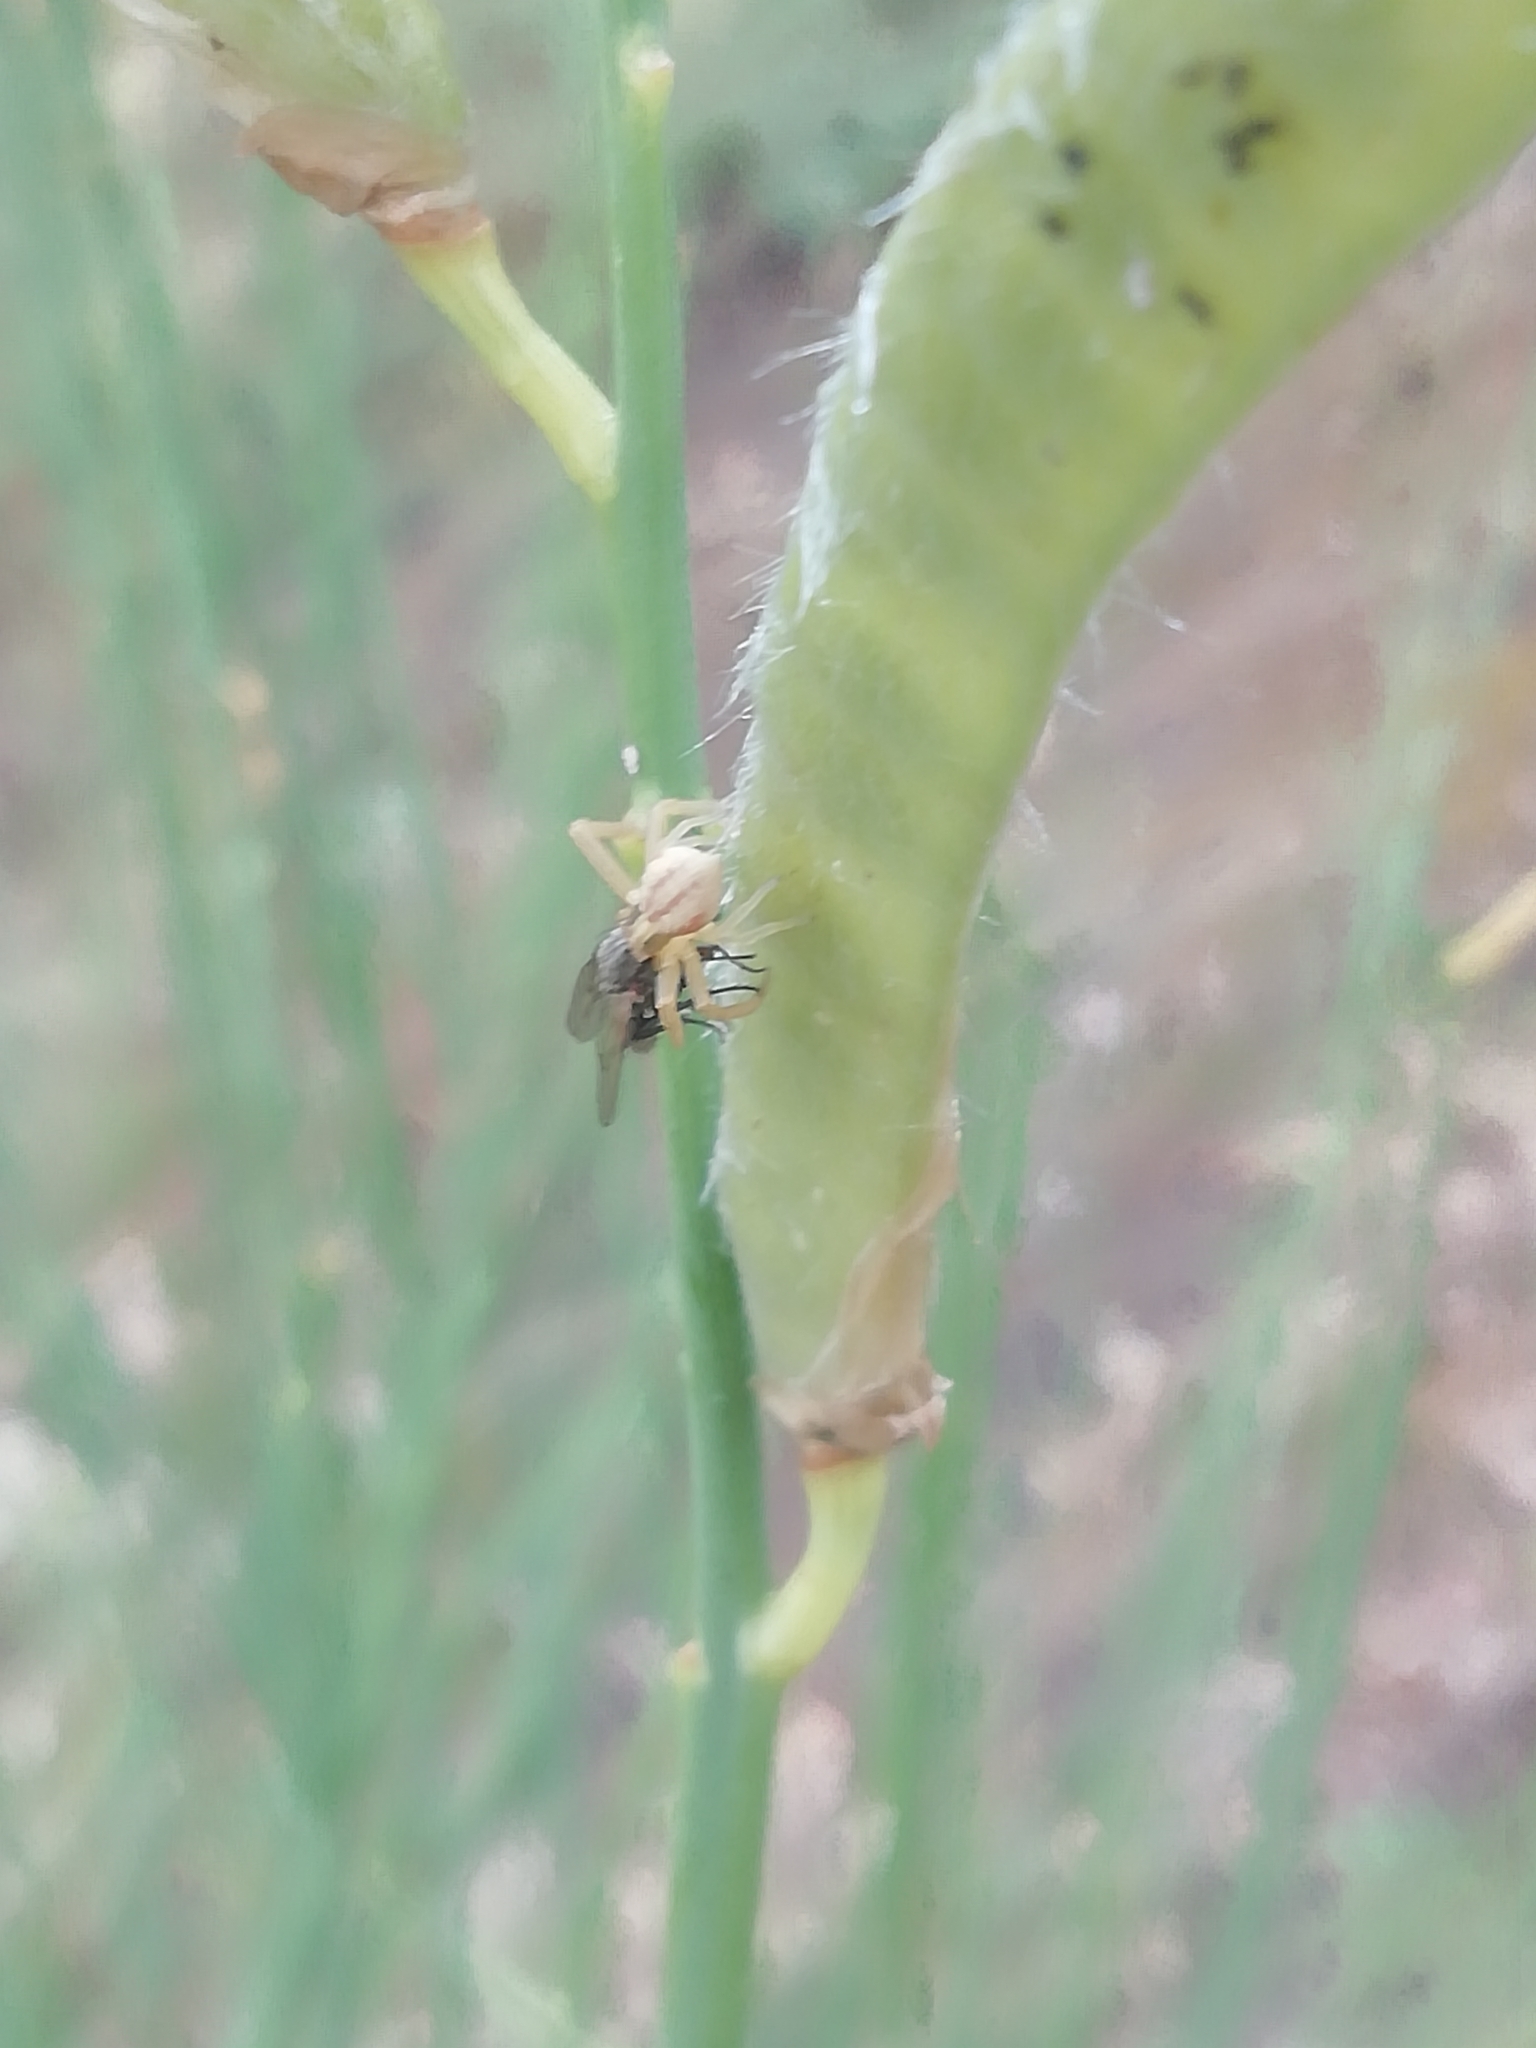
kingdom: Animalia
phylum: Arthropoda
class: Arachnida
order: Araneae
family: Thomisidae
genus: Runcinia
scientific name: Runcinia grammica
